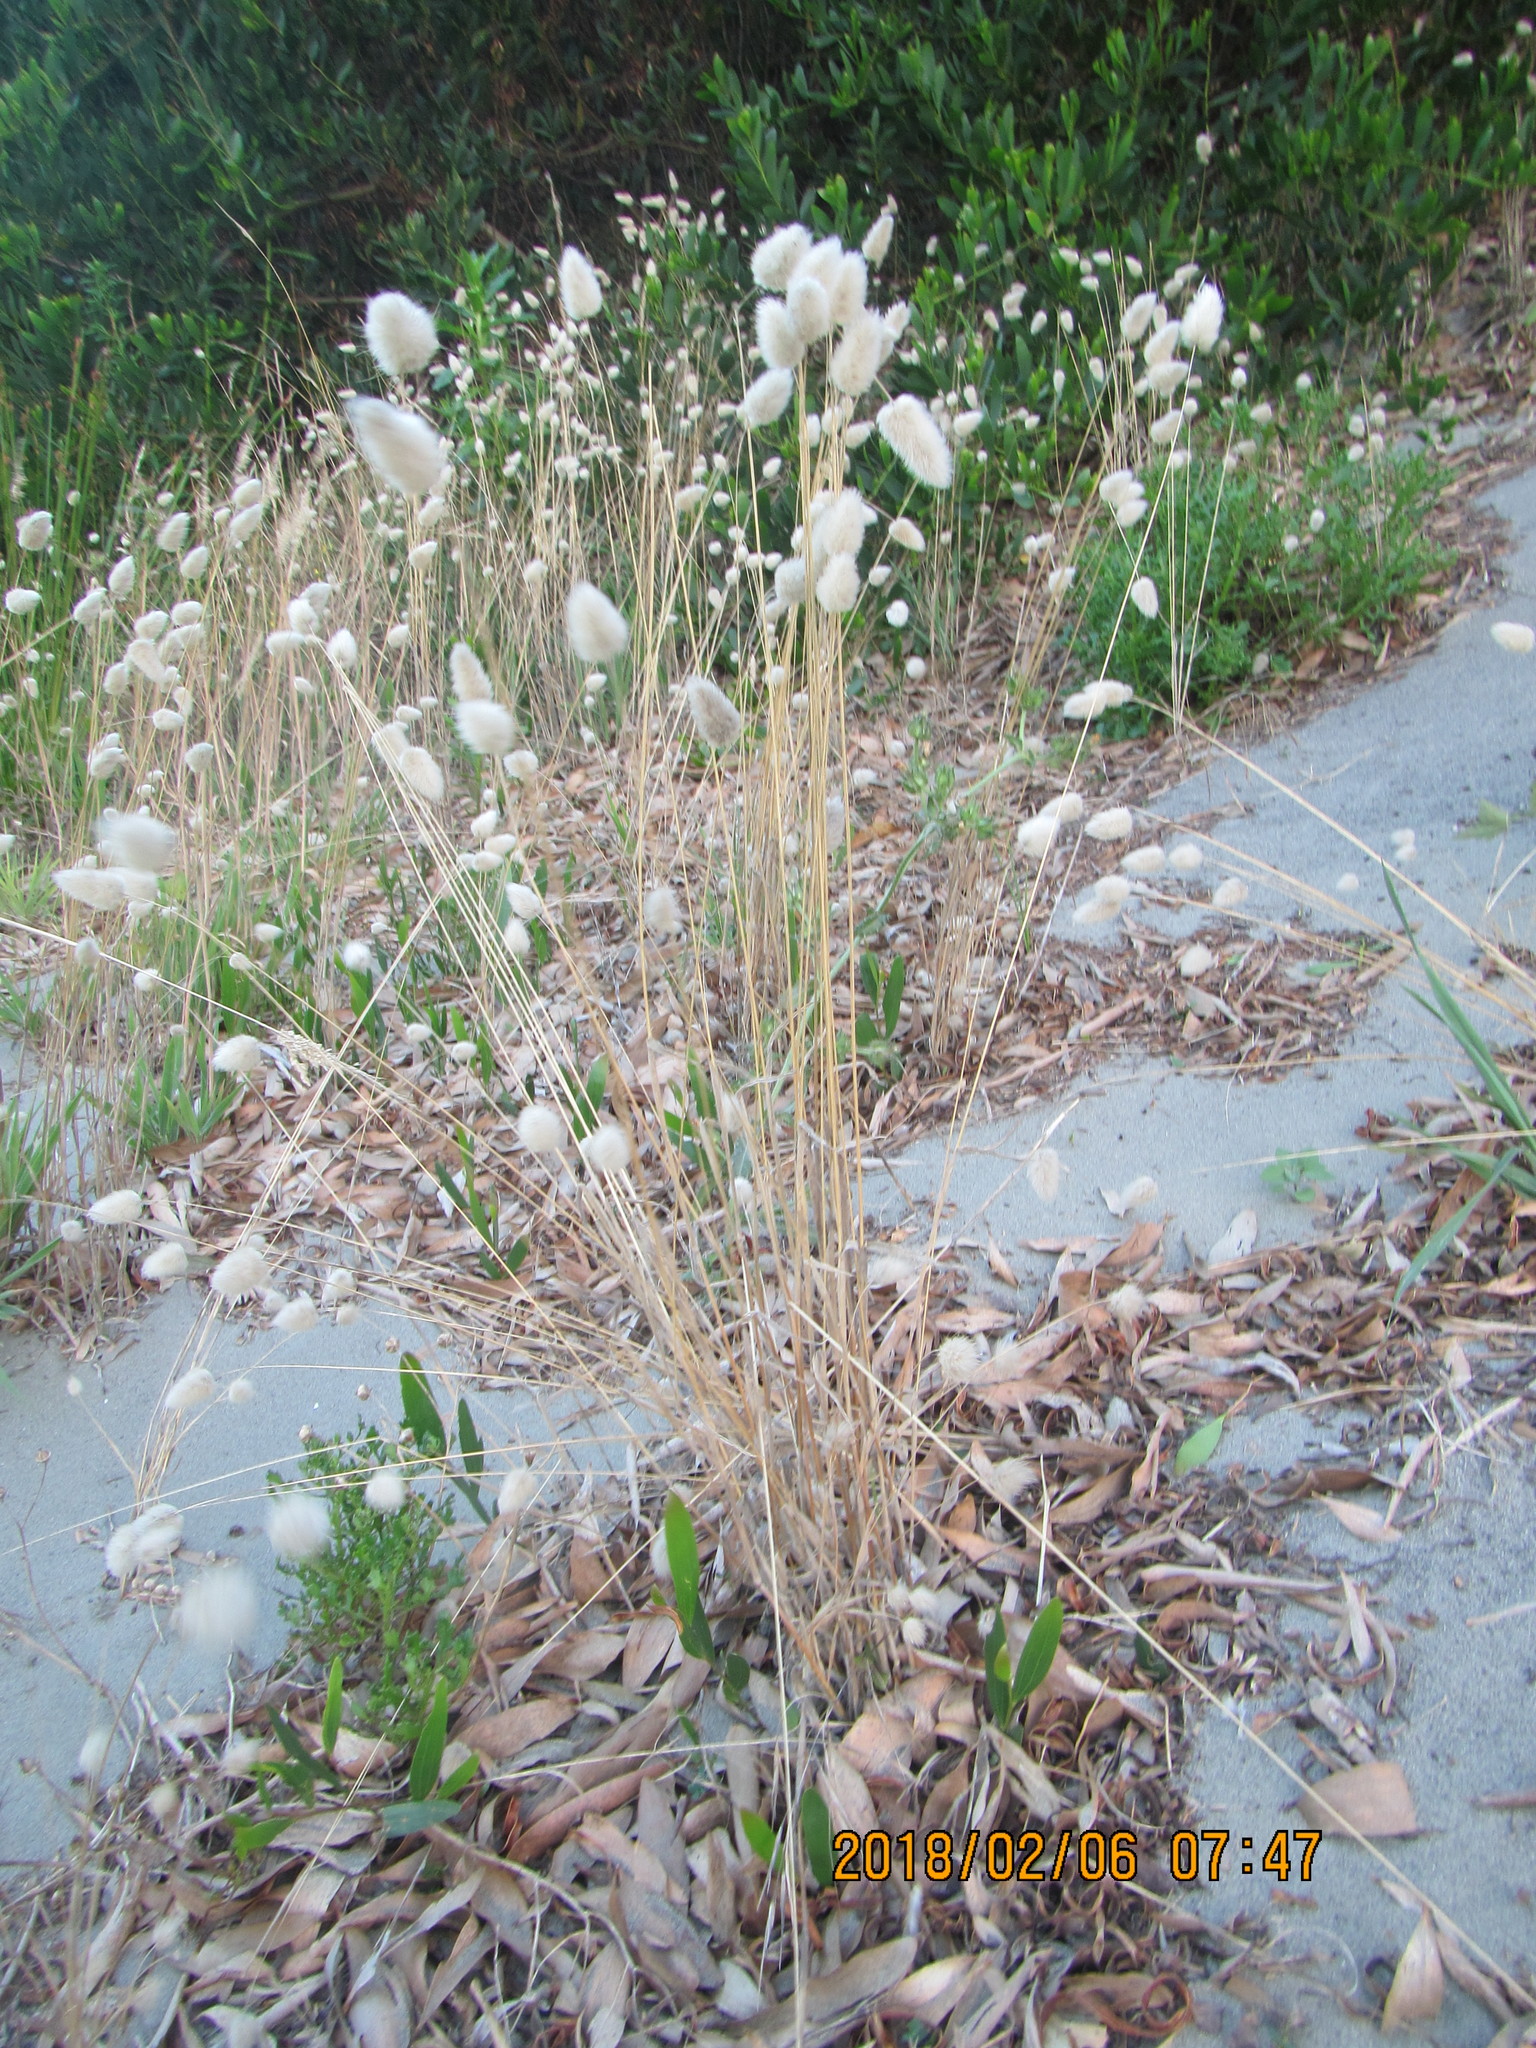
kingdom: Plantae
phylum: Tracheophyta
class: Liliopsida
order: Poales
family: Poaceae
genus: Lagurus
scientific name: Lagurus ovatus
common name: Hare's-tail
